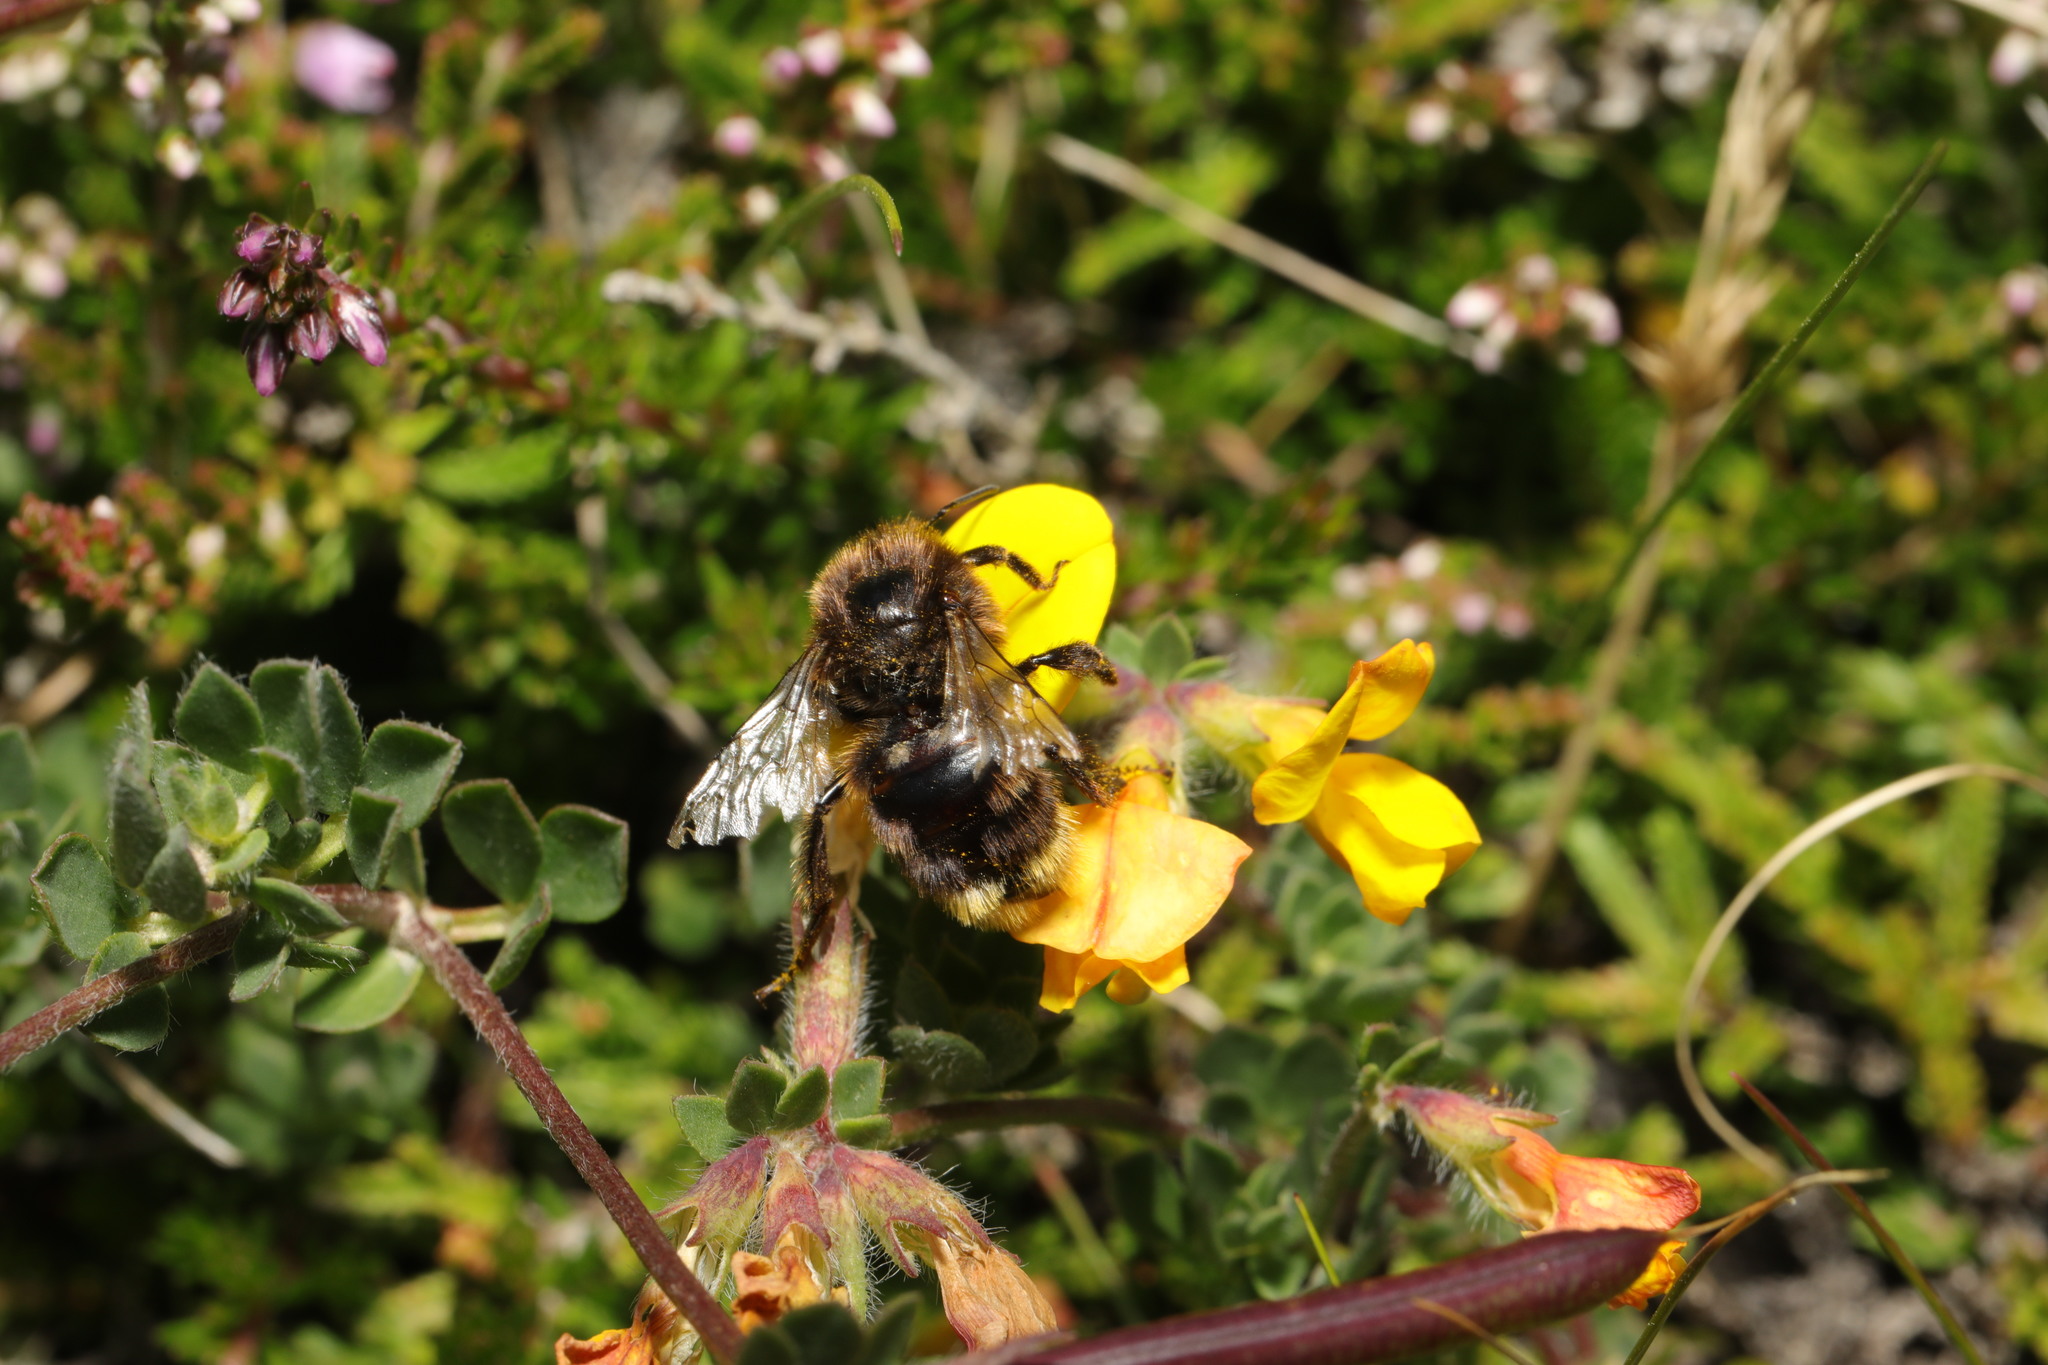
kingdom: Animalia
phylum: Arthropoda
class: Insecta
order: Hymenoptera
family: Apidae
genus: Bombus
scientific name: Bombus pascuorum
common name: Common carder bee
